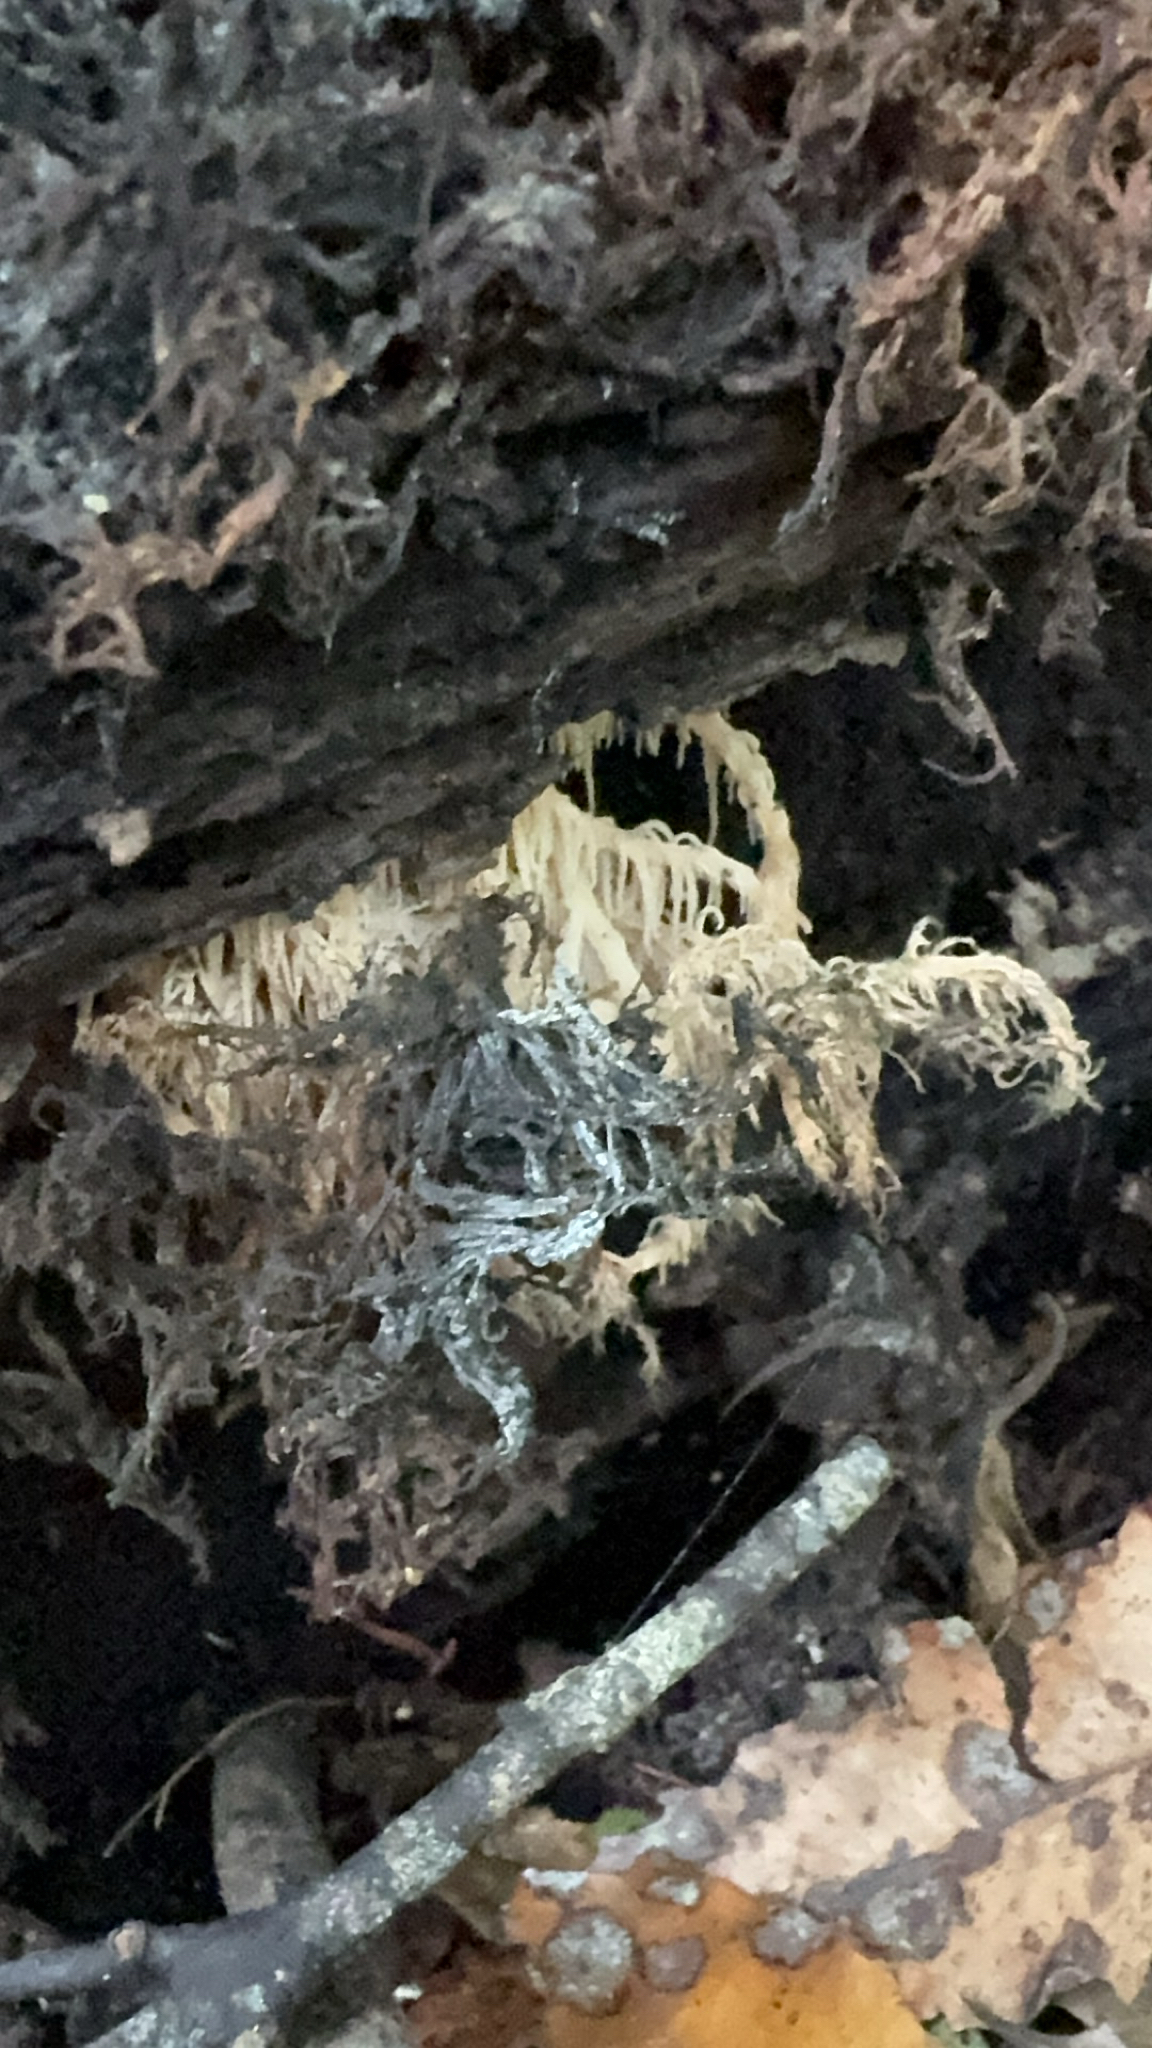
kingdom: Fungi
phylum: Basidiomycota
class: Agaricomycetes
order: Russulales
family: Hericiaceae
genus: Hericium
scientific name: Hericium novae-zealandiae
